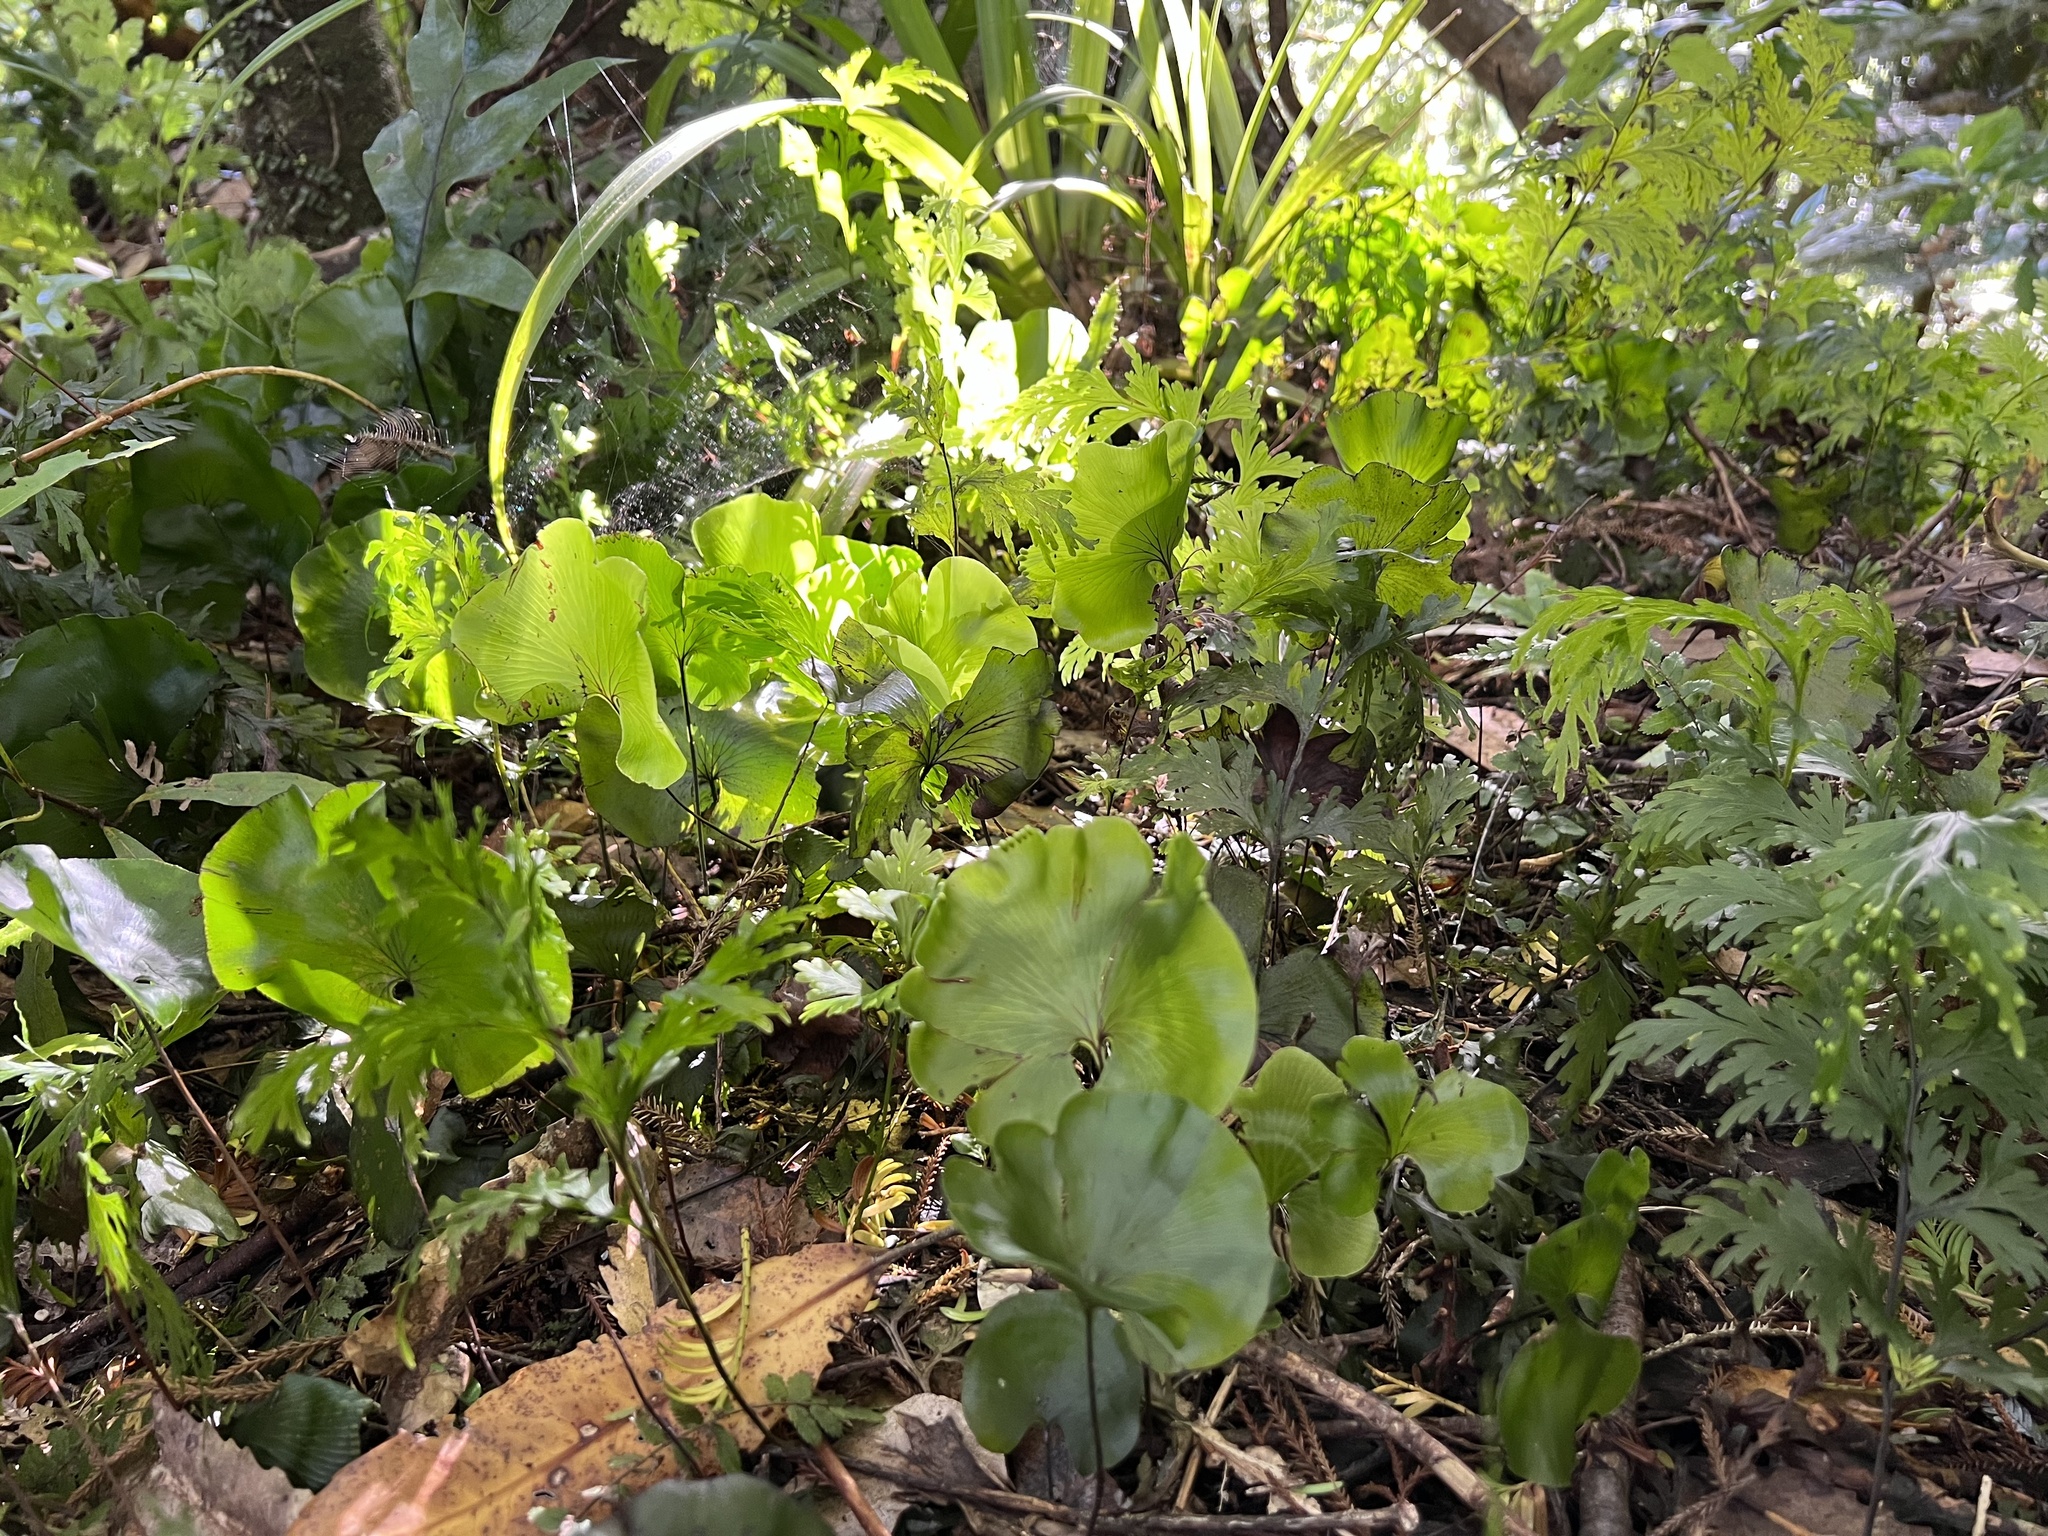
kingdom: Plantae
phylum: Tracheophyta
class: Polypodiopsida
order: Hymenophyllales
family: Hymenophyllaceae
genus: Hymenophyllum
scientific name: Hymenophyllum nephrophyllum
